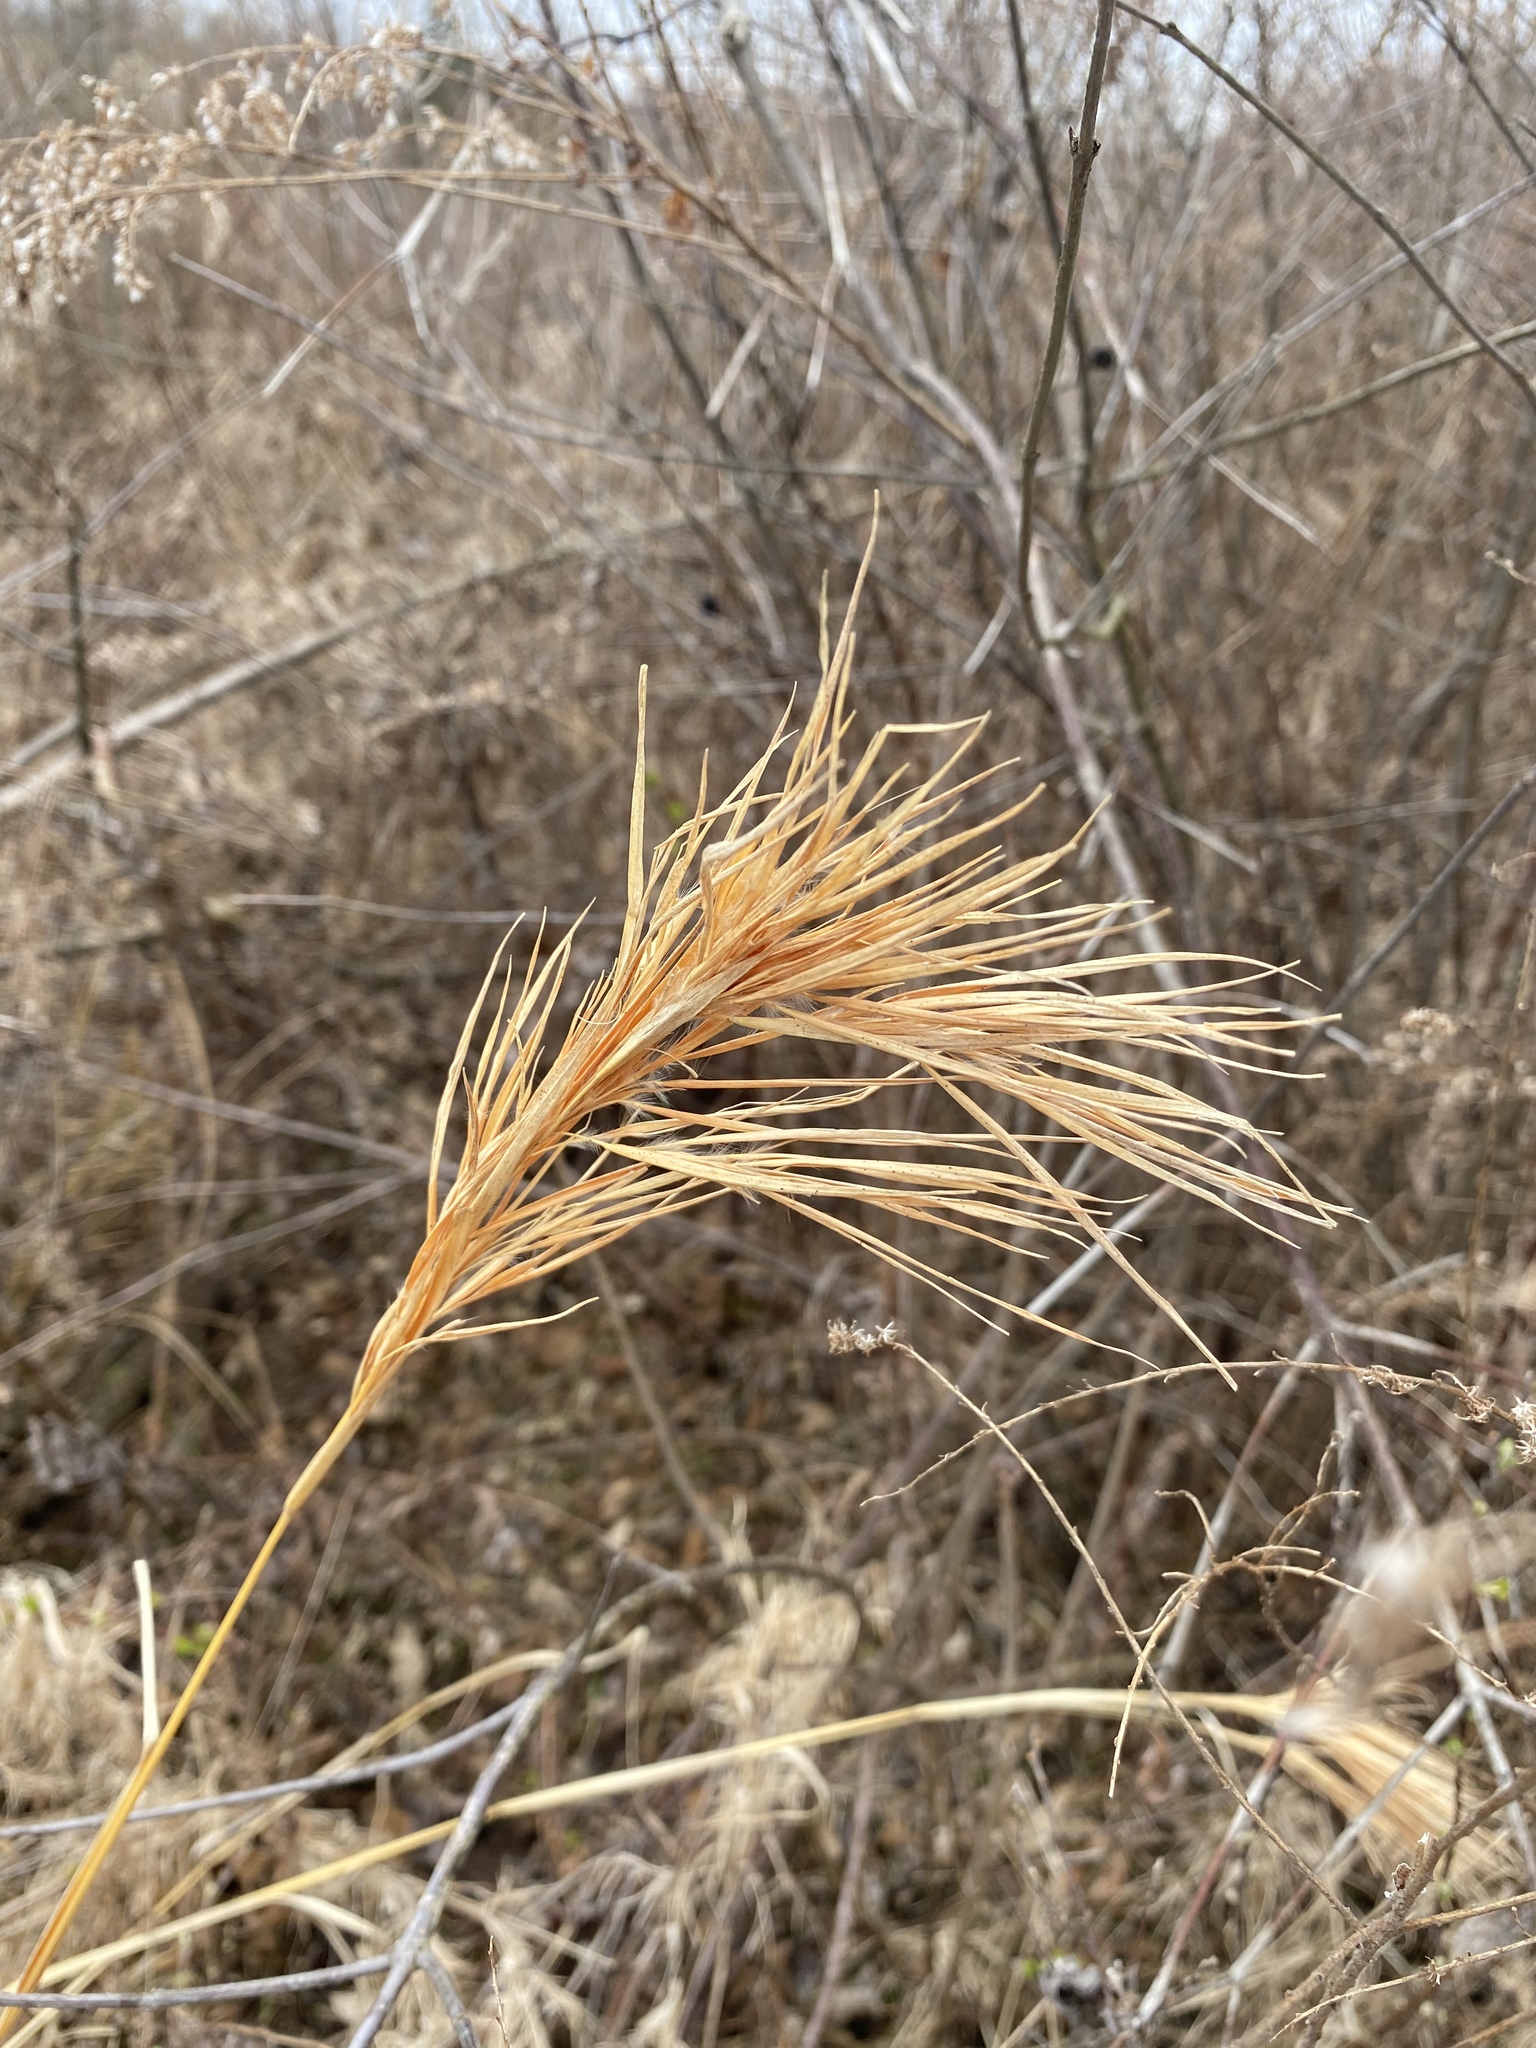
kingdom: Plantae
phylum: Tracheophyta
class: Liliopsida
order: Poales
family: Poaceae
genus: Andropogon
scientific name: Andropogon glomeratus
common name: Bushy beard grass
